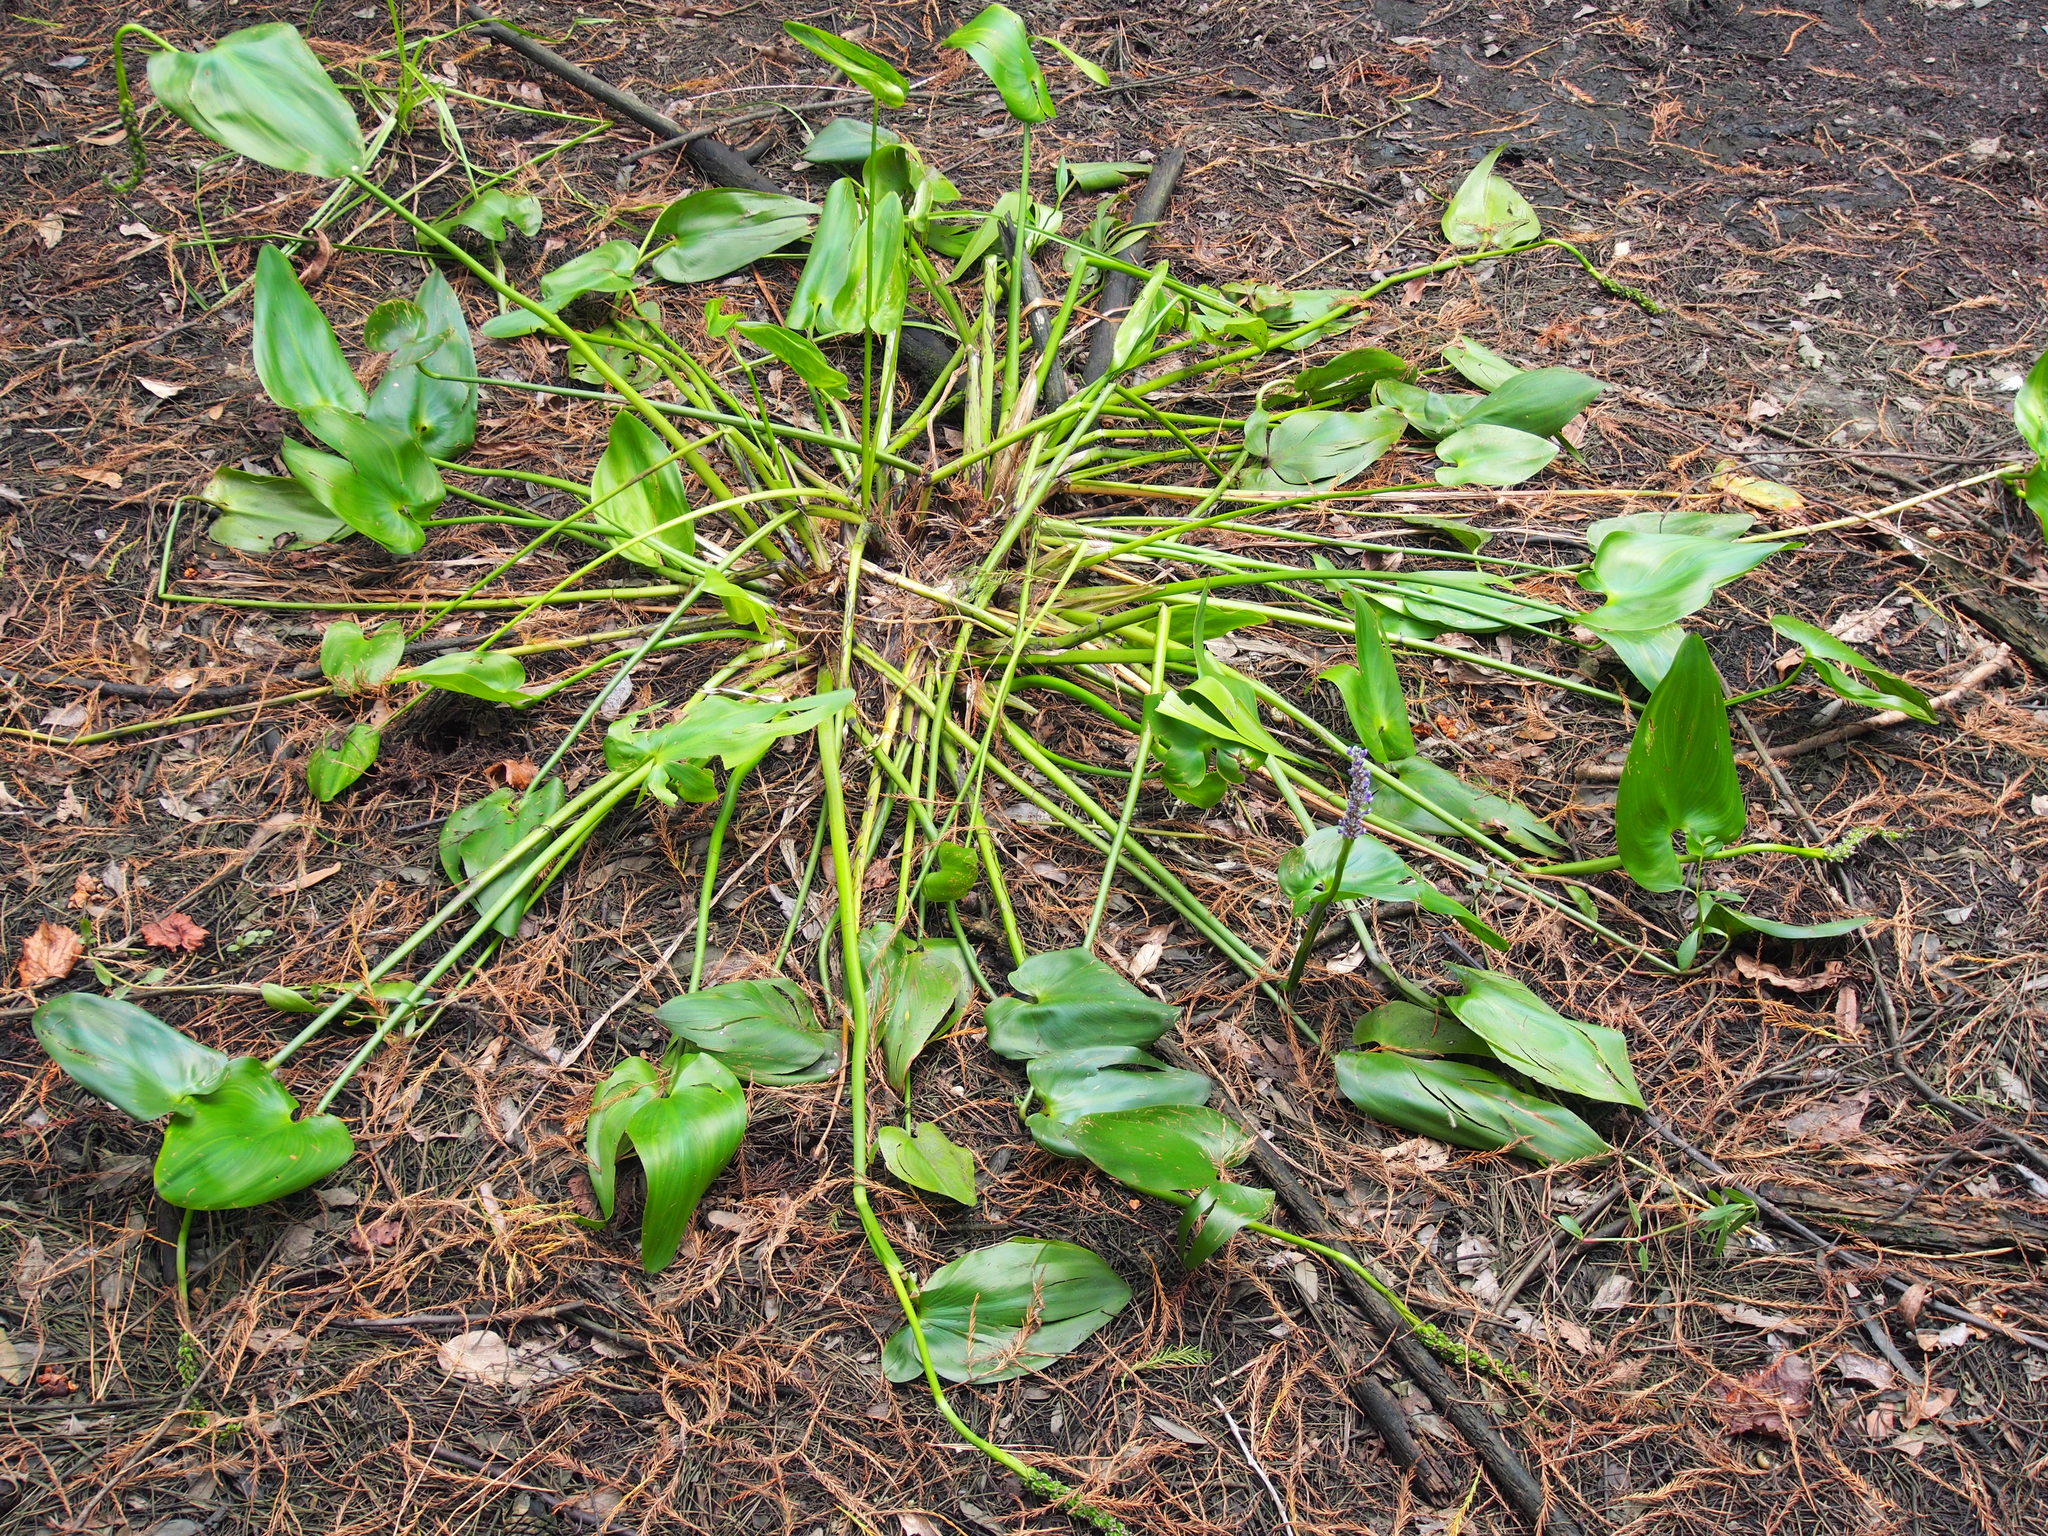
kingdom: Plantae
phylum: Tracheophyta
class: Liliopsida
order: Commelinales
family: Pontederiaceae
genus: Pontederia
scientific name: Pontederia cordata
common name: Pickerelweed
